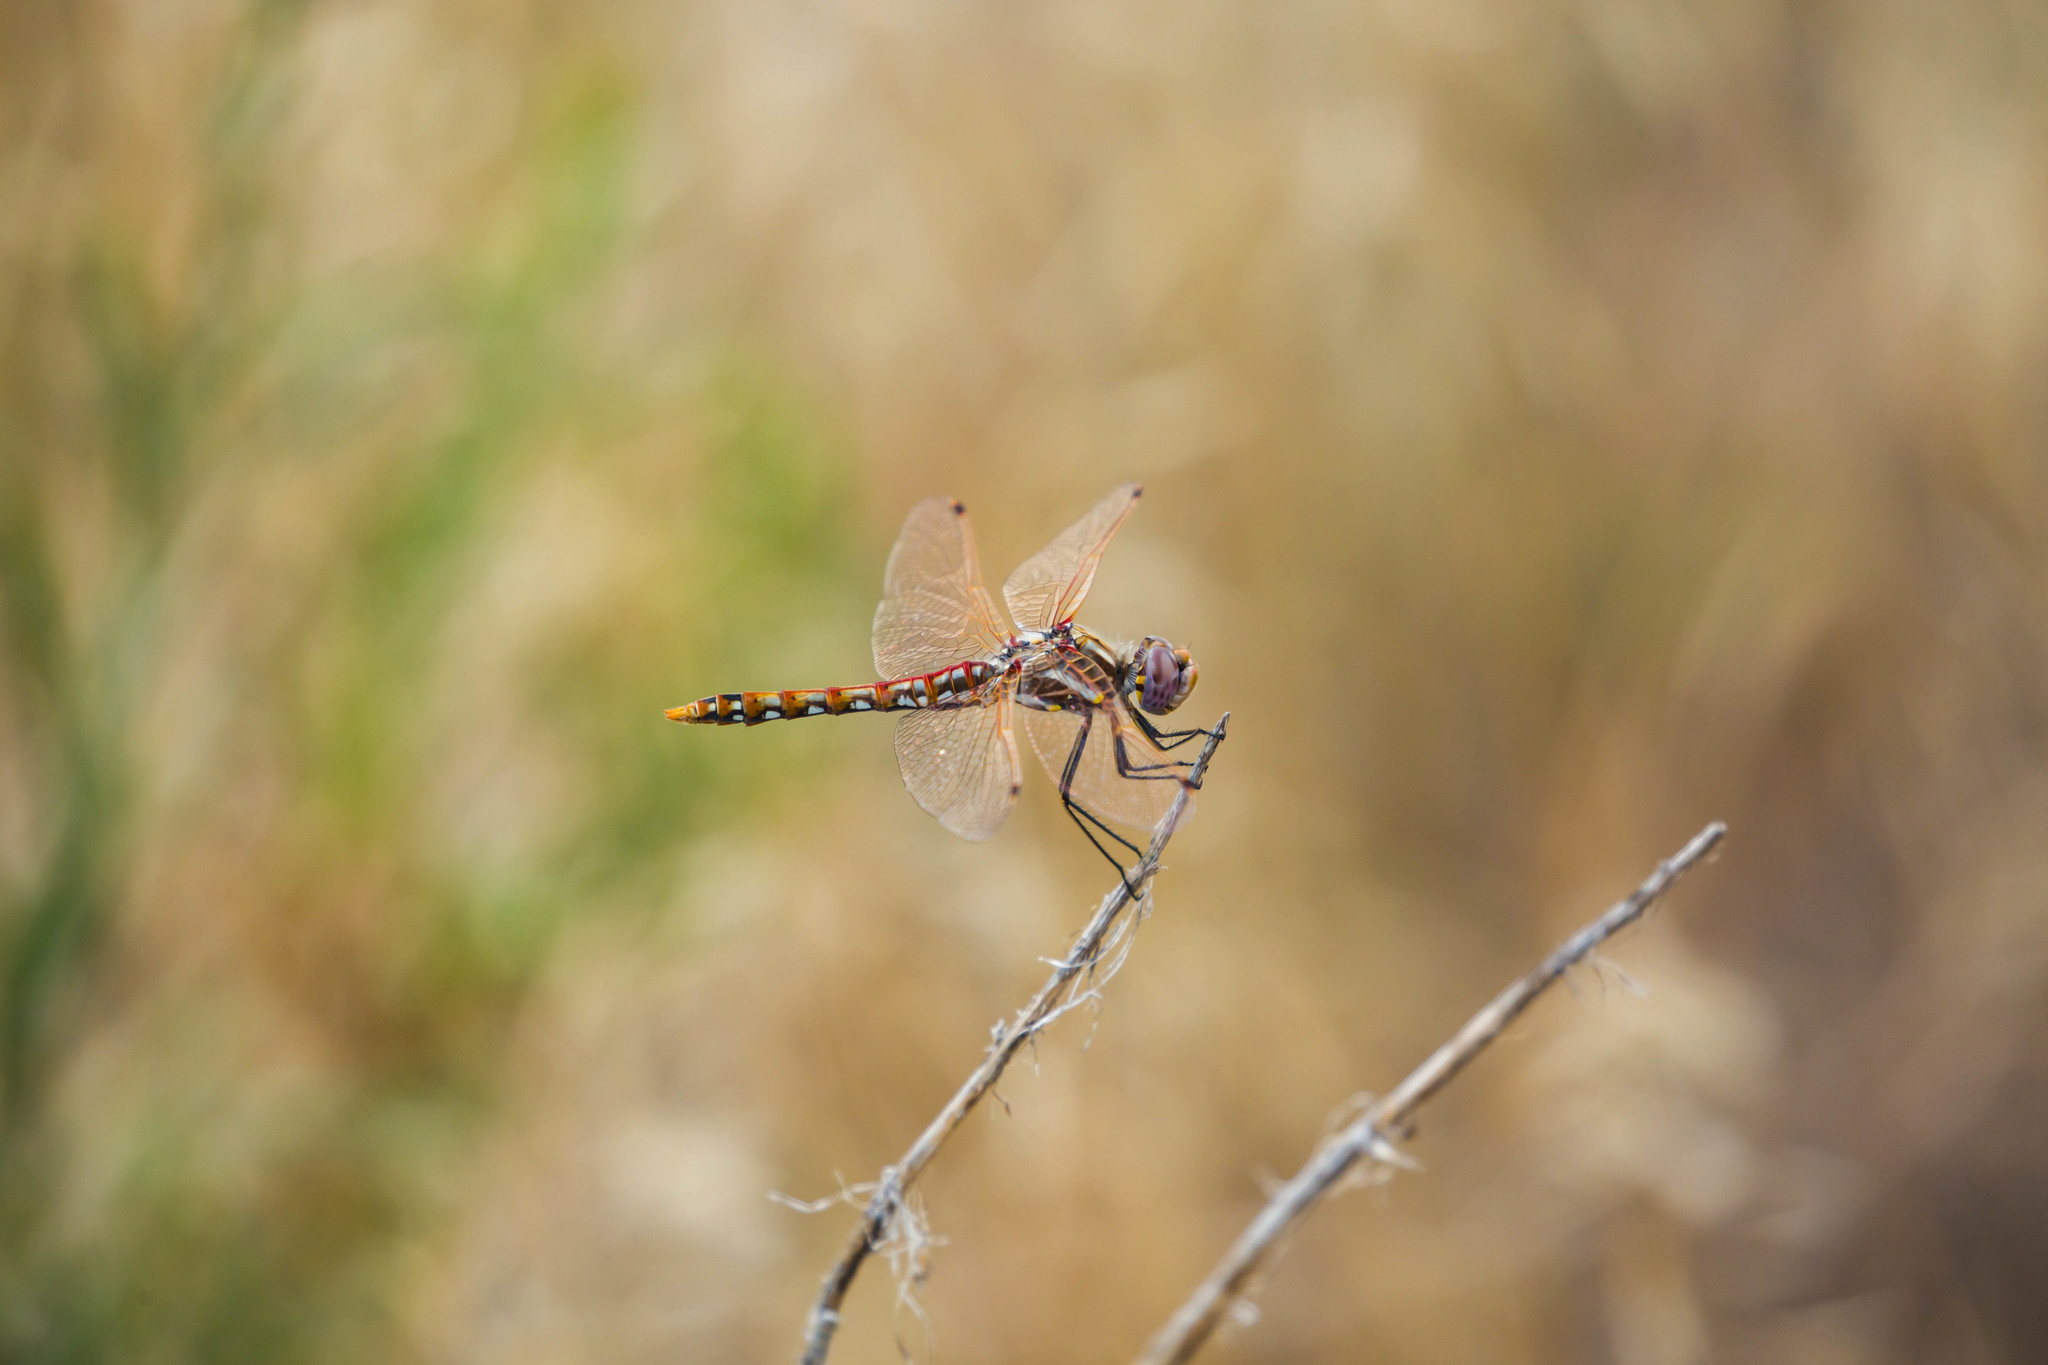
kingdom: Animalia
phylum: Arthropoda
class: Insecta
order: Odonata
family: Libellulidae
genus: Sympetrum
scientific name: Sympetrum corruptum
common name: Variegated meadowhawk
